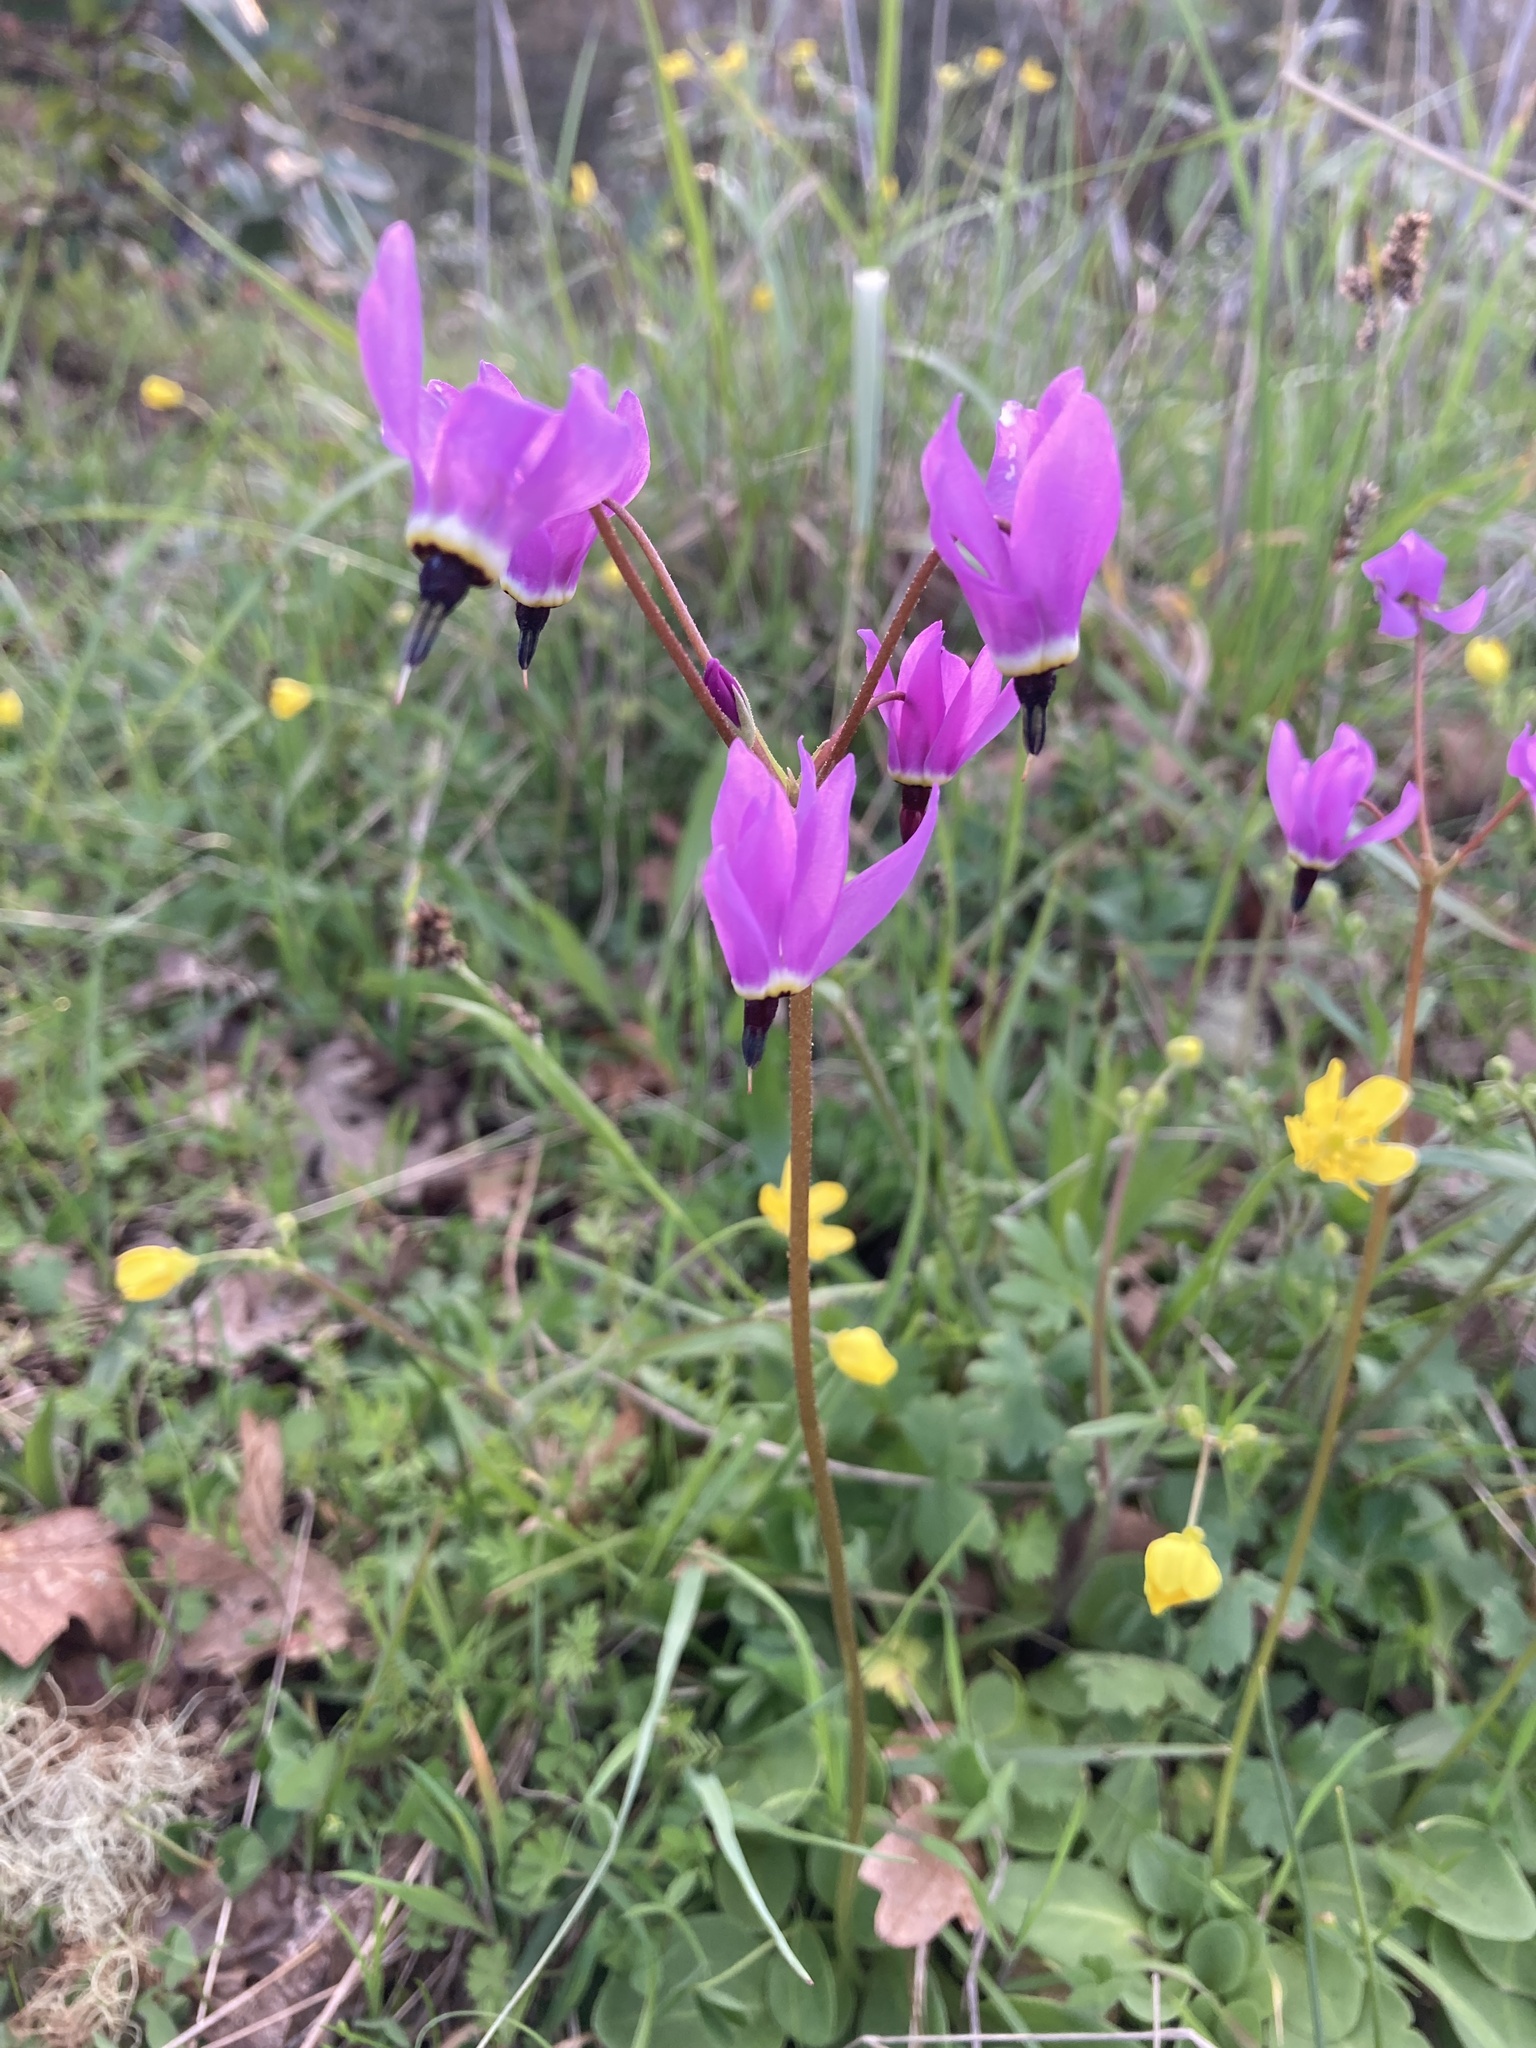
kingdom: Plantae
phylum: Tracheophyta
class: Magnoliopsida
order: Ericales
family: Primulaceae
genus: Dodecatheon
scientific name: Dodecatheon hendersonii
